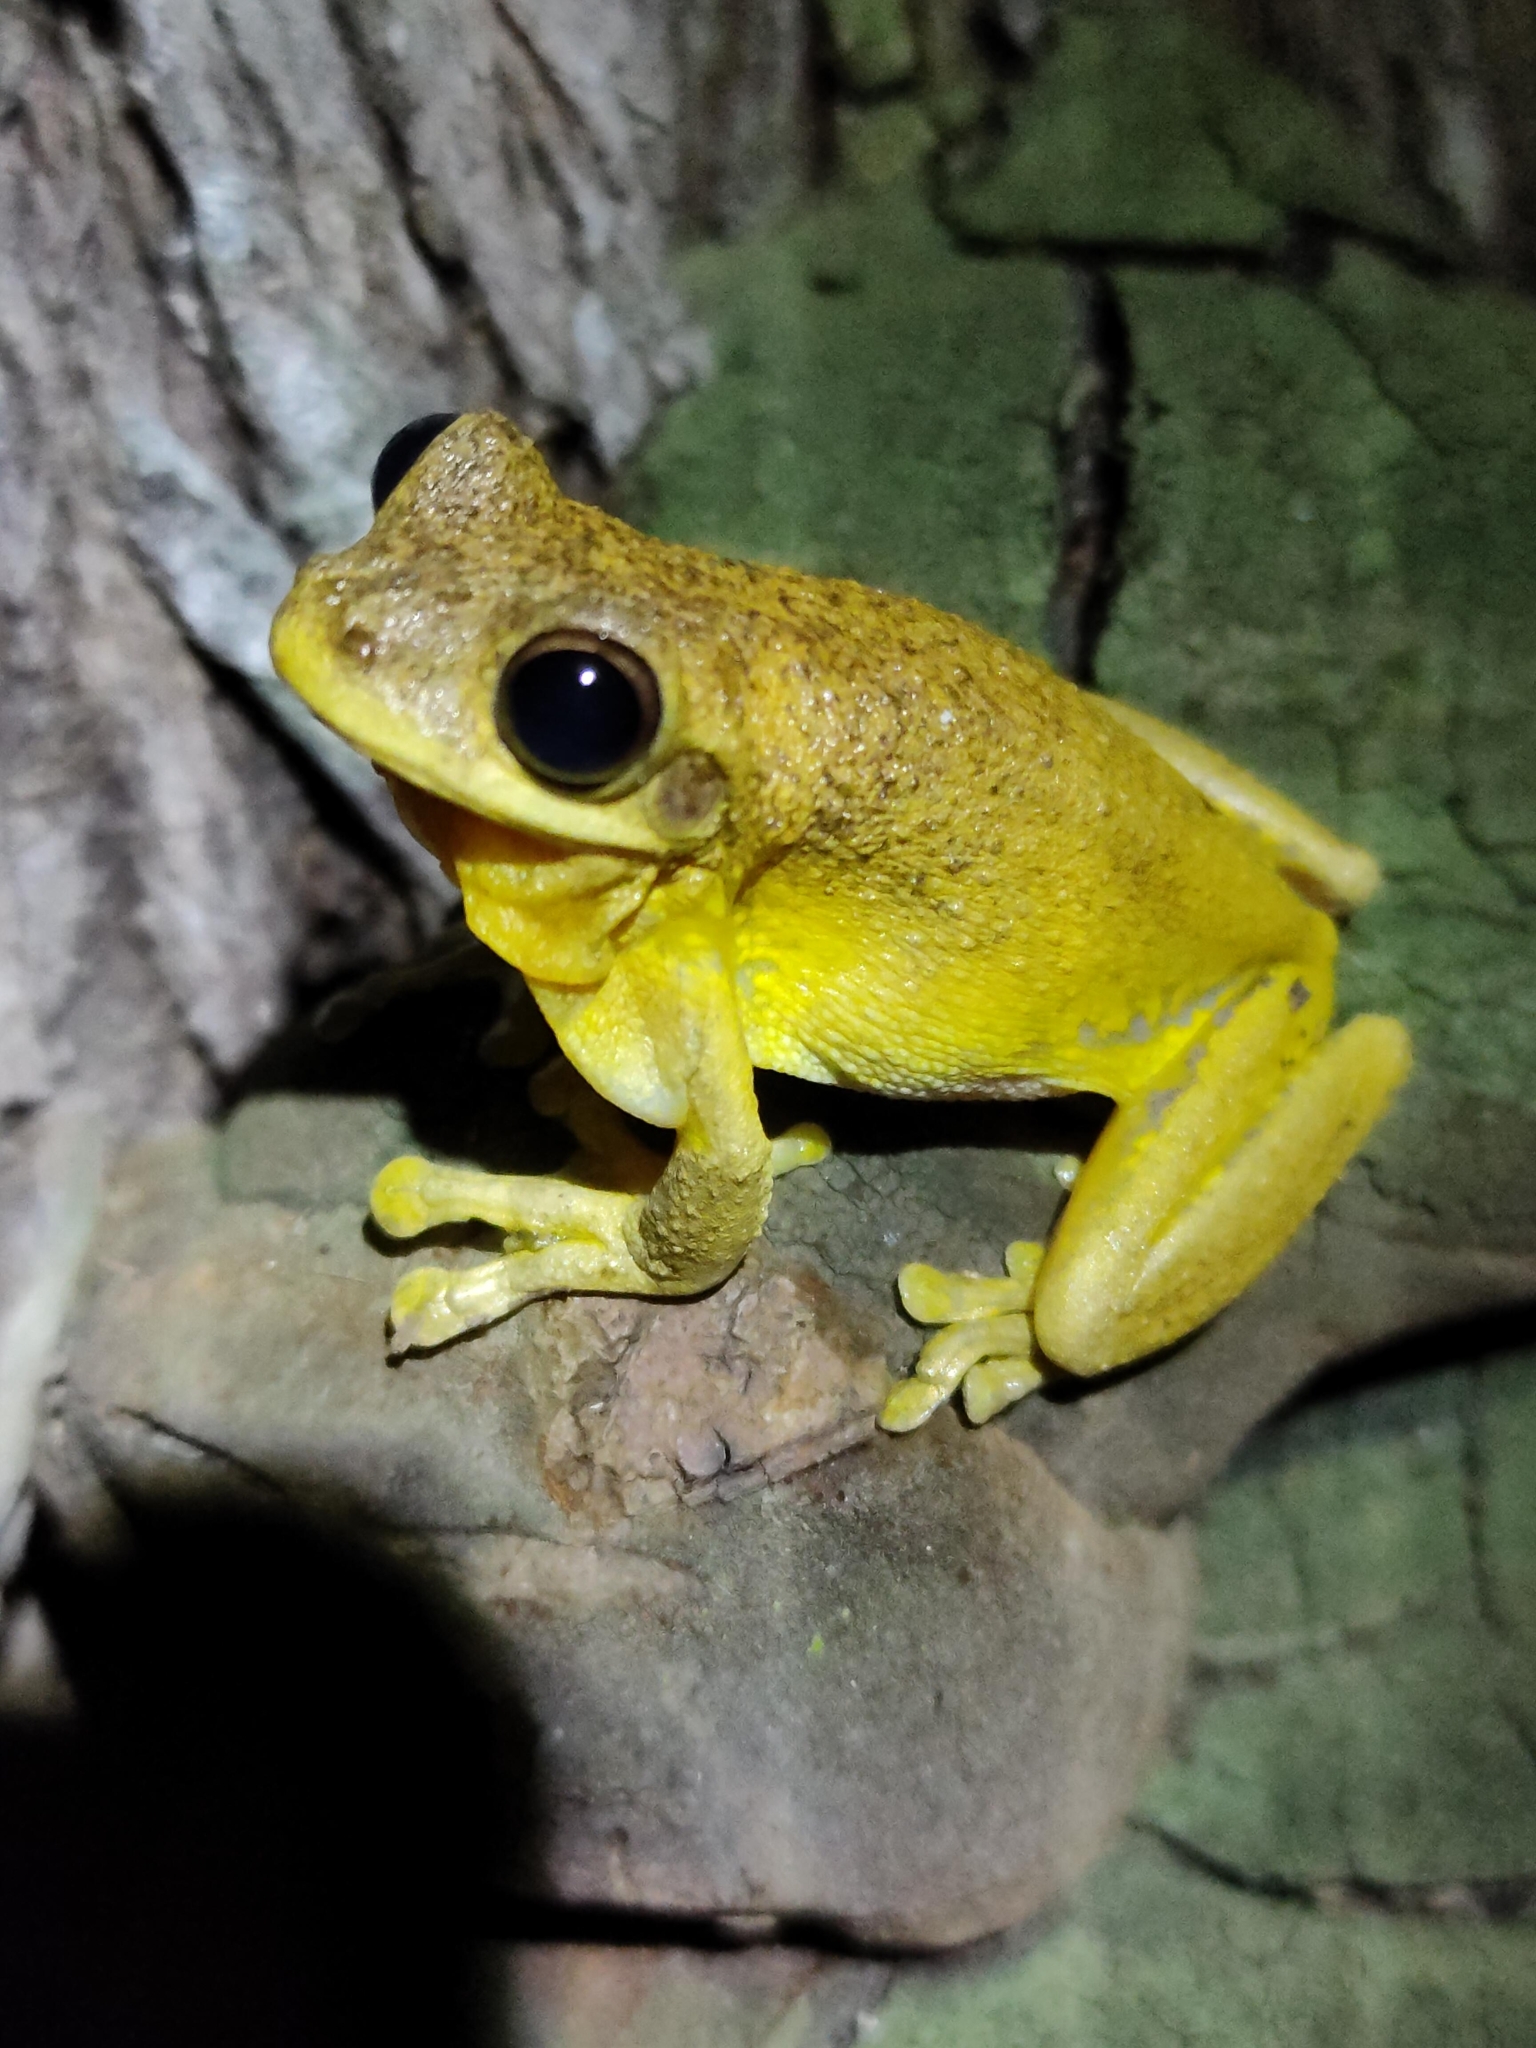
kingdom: Animalia
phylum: Chordata
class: Amphibia
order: Anura
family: Pelodryadidae
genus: Litoria
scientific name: Litoria tyleri
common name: Laughing tree frog
